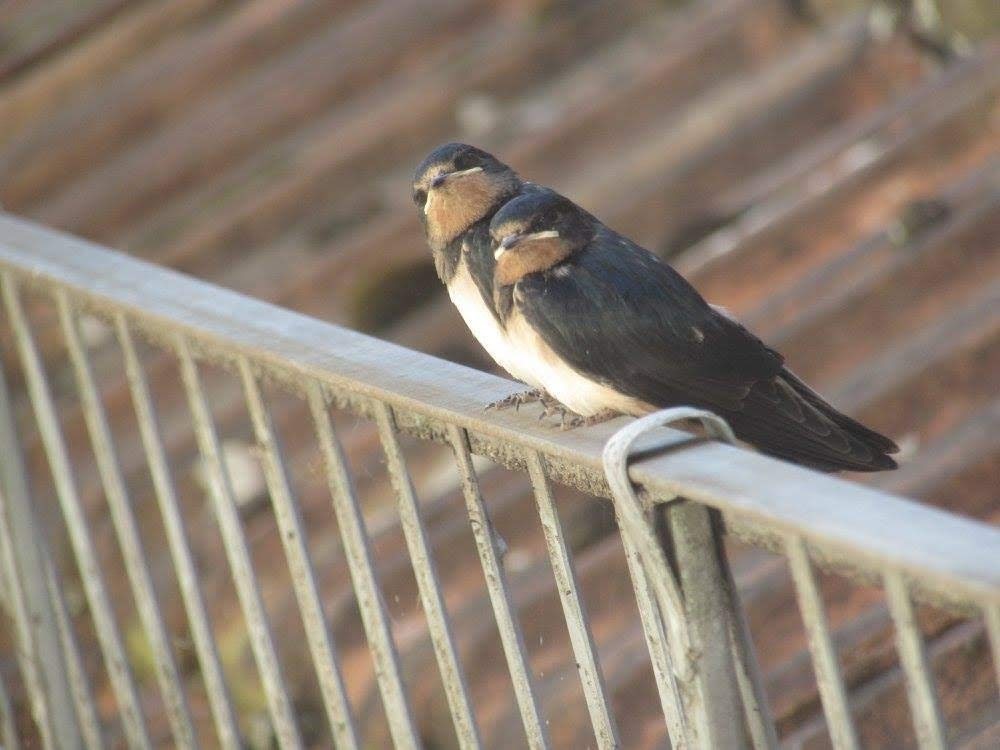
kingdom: Animalia
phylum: Chordata
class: Aves
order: Passeriformes
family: Hirundinidae
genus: Hirundo
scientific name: Hirundo rustica
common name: Barn swallow
